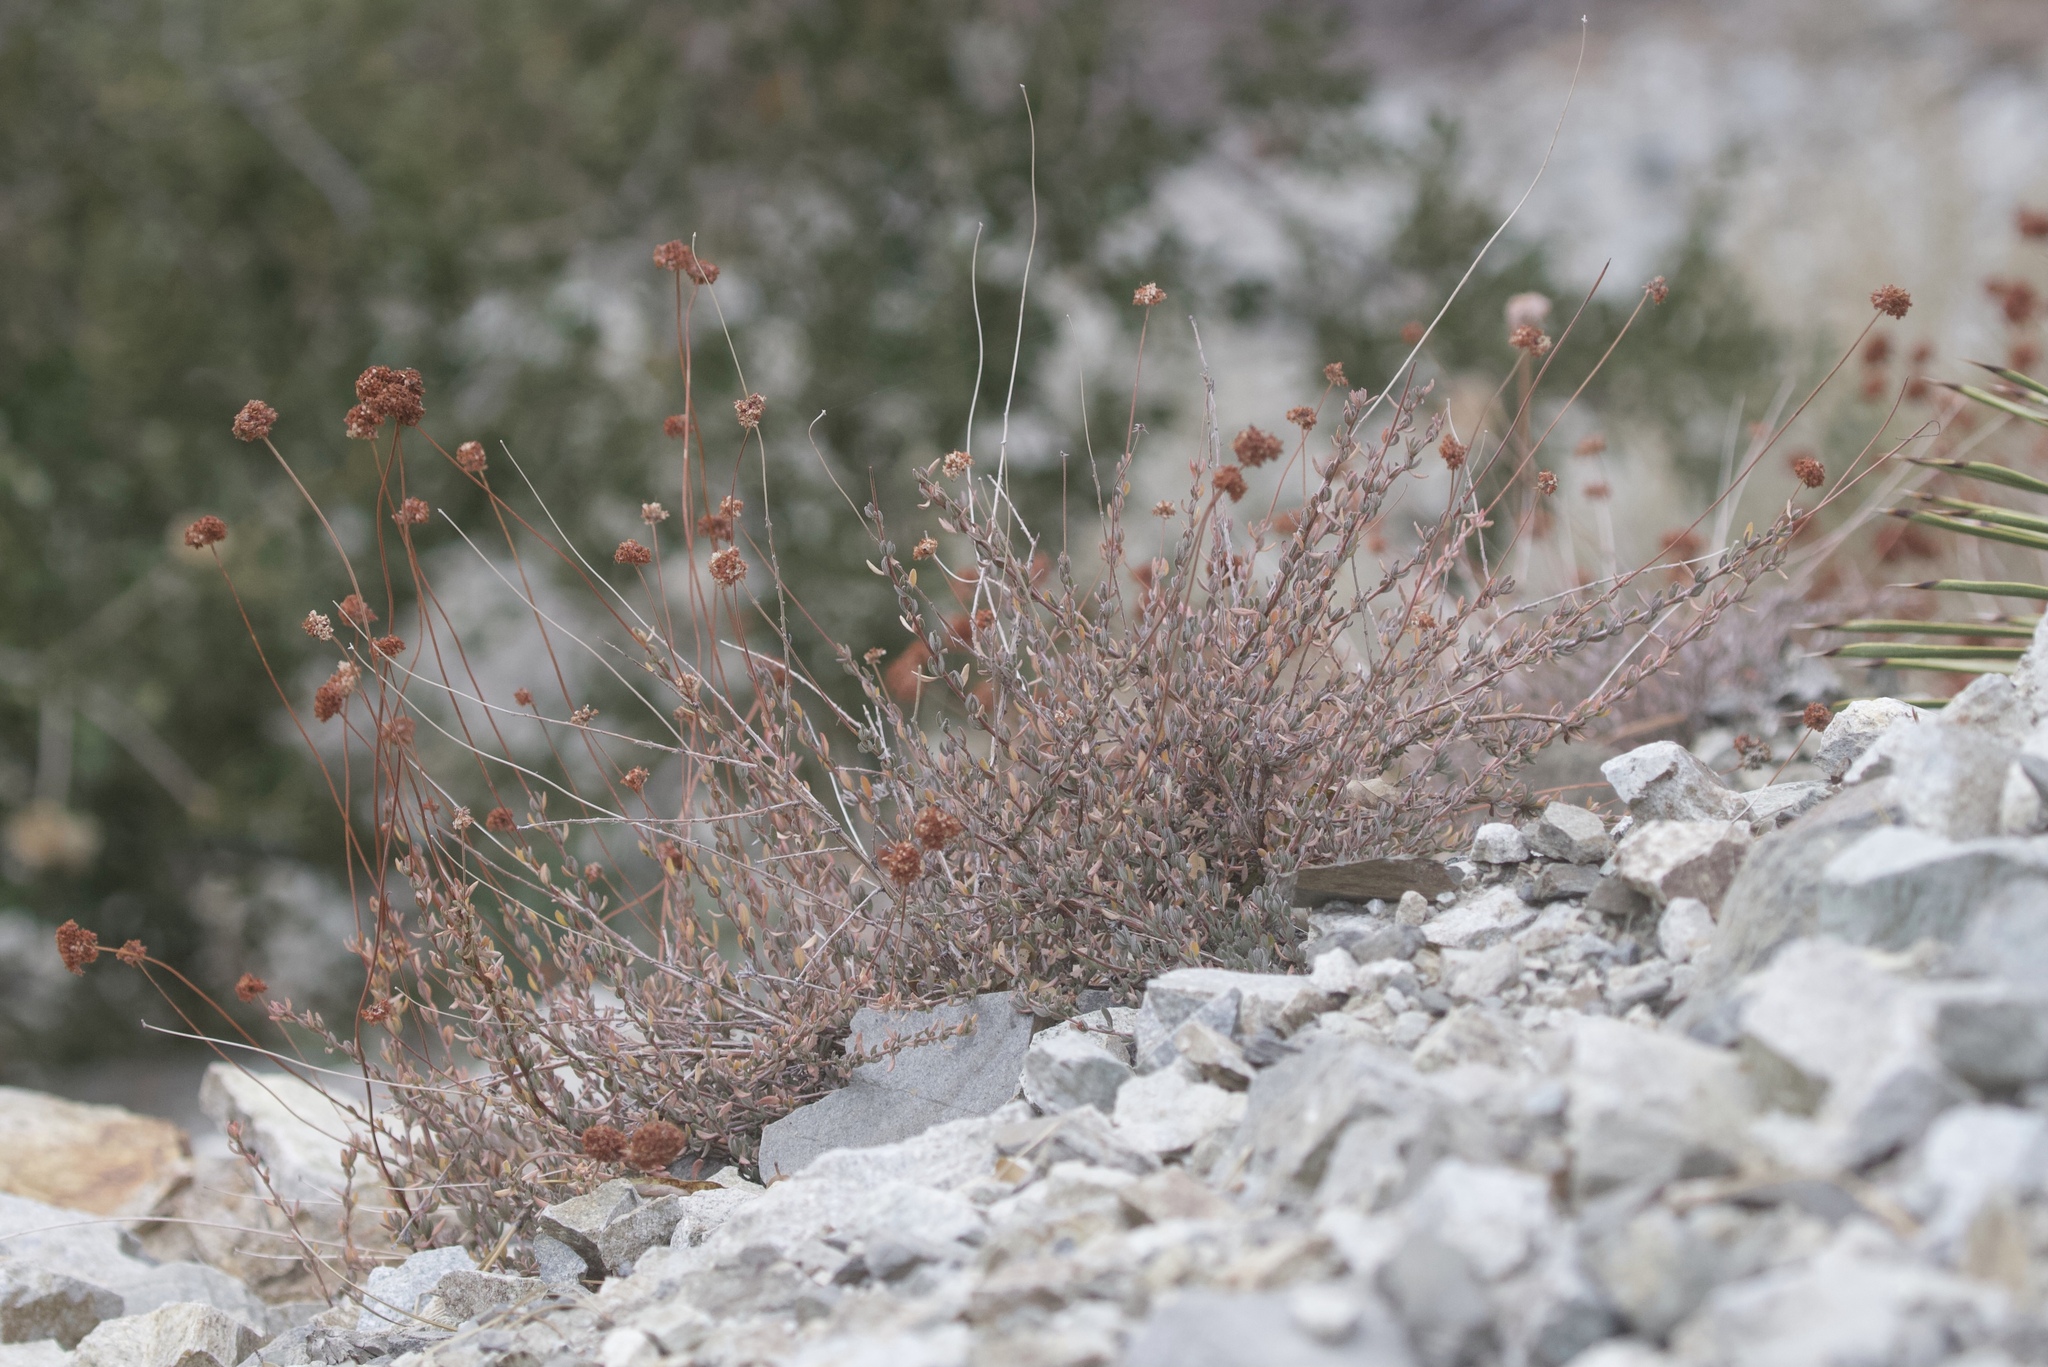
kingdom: Plantae
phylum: Tracheophyta
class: Magnoliopsida
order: Caryophyllales
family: Polygonaceae
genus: Eriogonum
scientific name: Eriogonum fasciculatum
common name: California wild buckwheat
